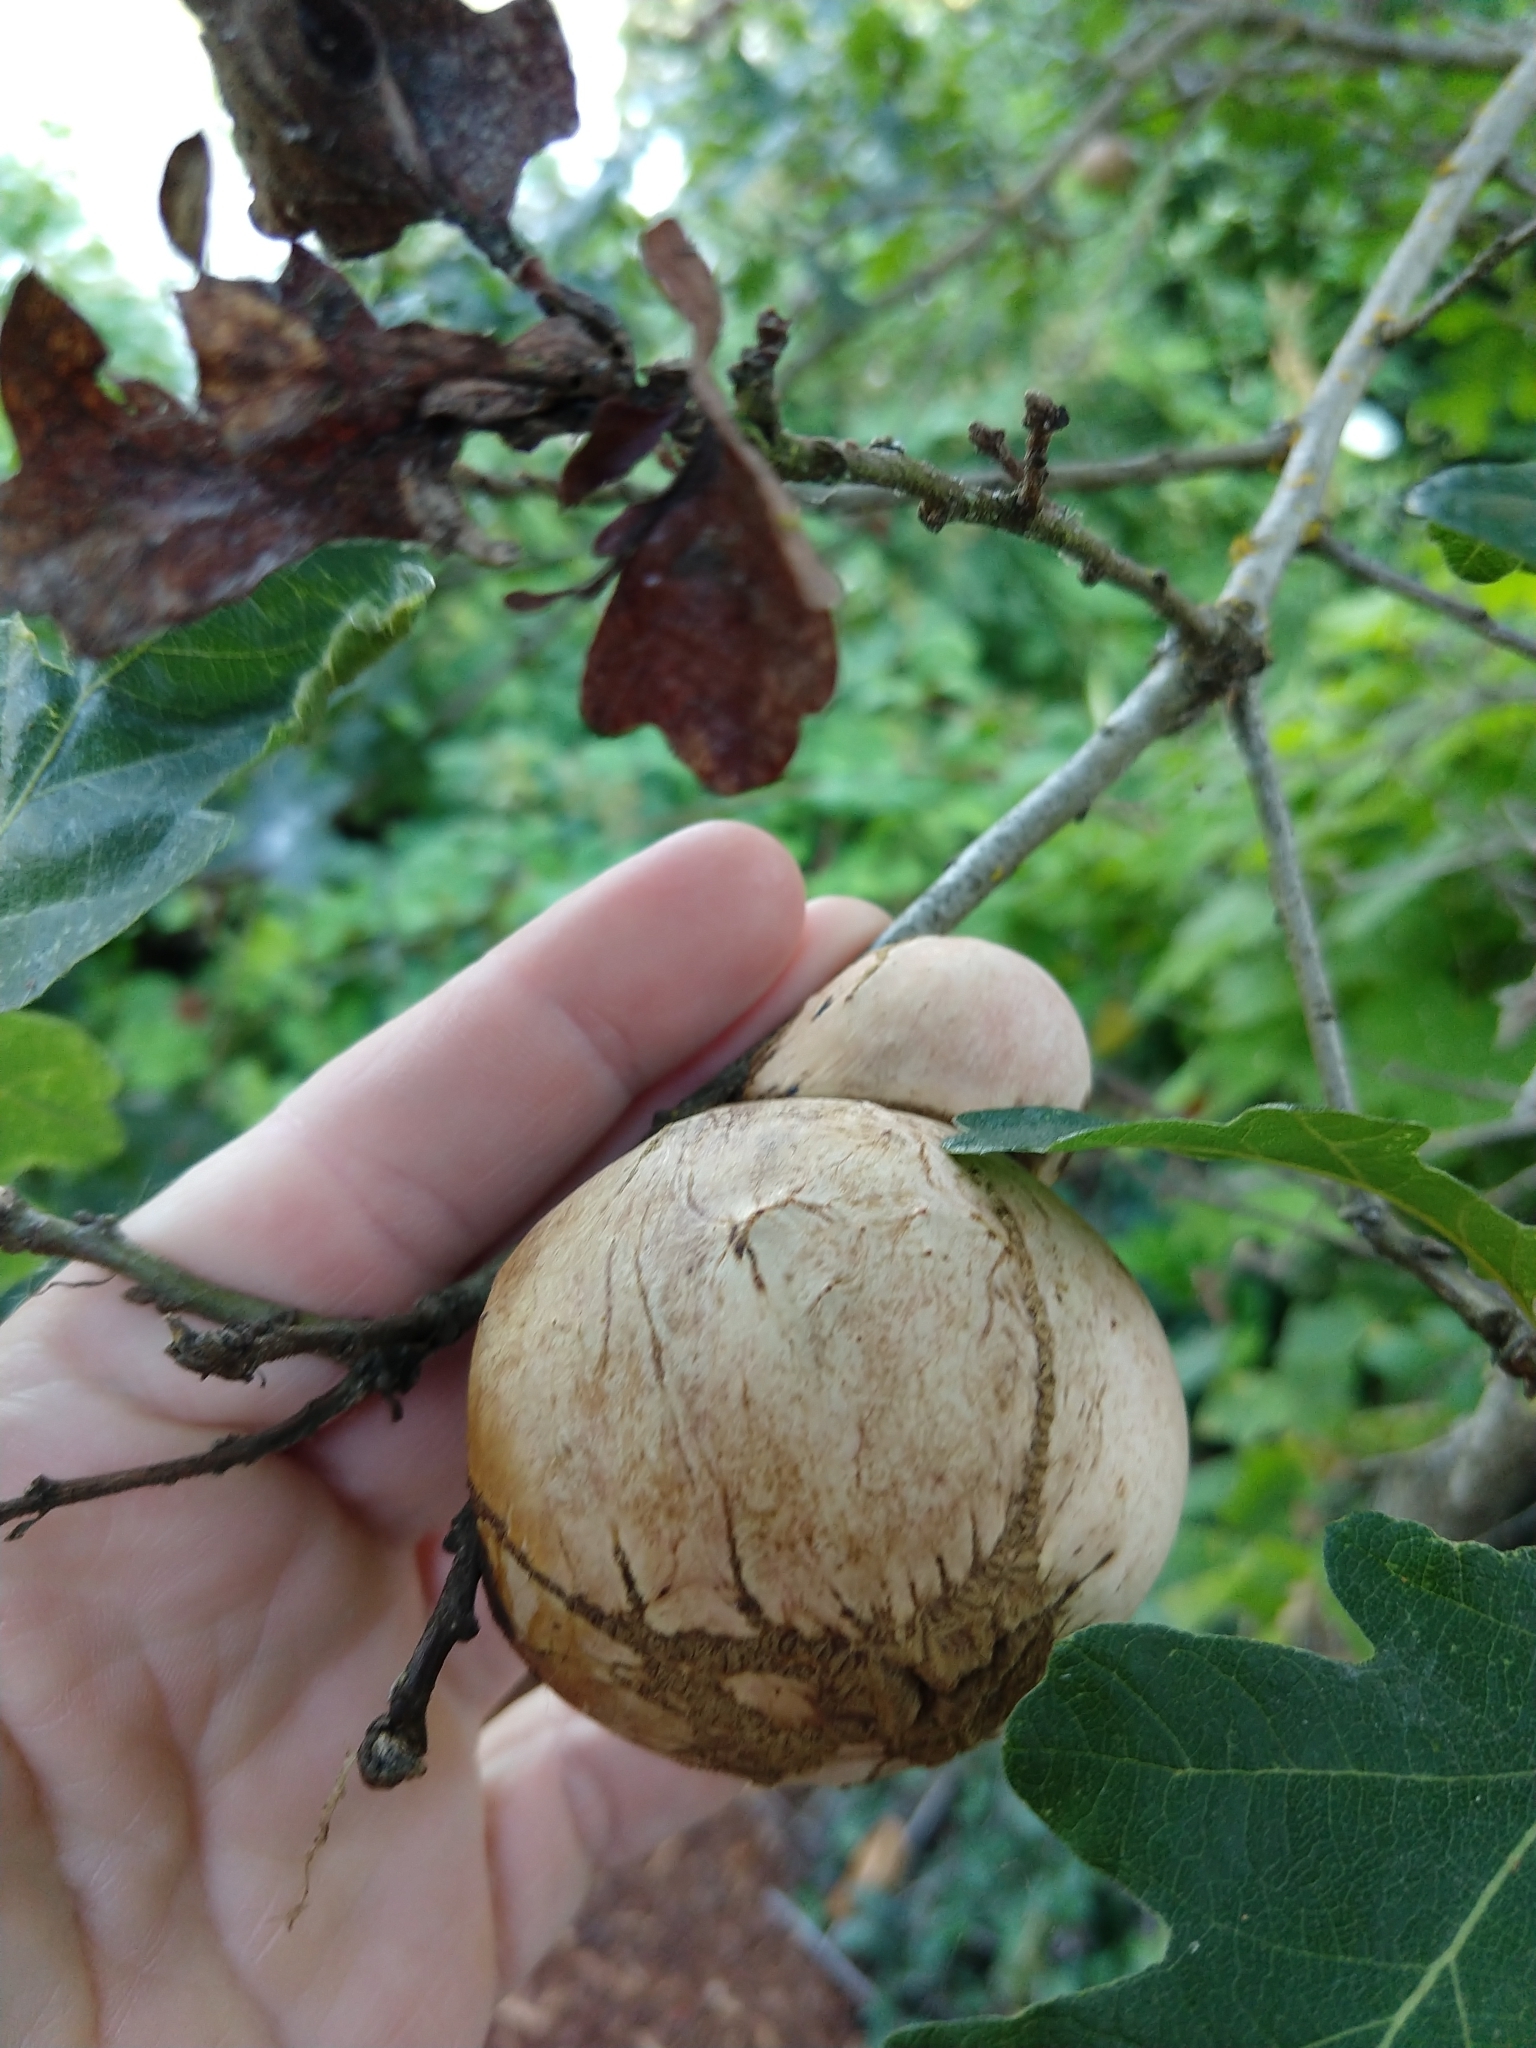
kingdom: Animalia
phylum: Arthropoda
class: Insecta
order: Hymenoptera
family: Cynipidae
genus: Andricus
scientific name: Andricus quercuscalifornicus
